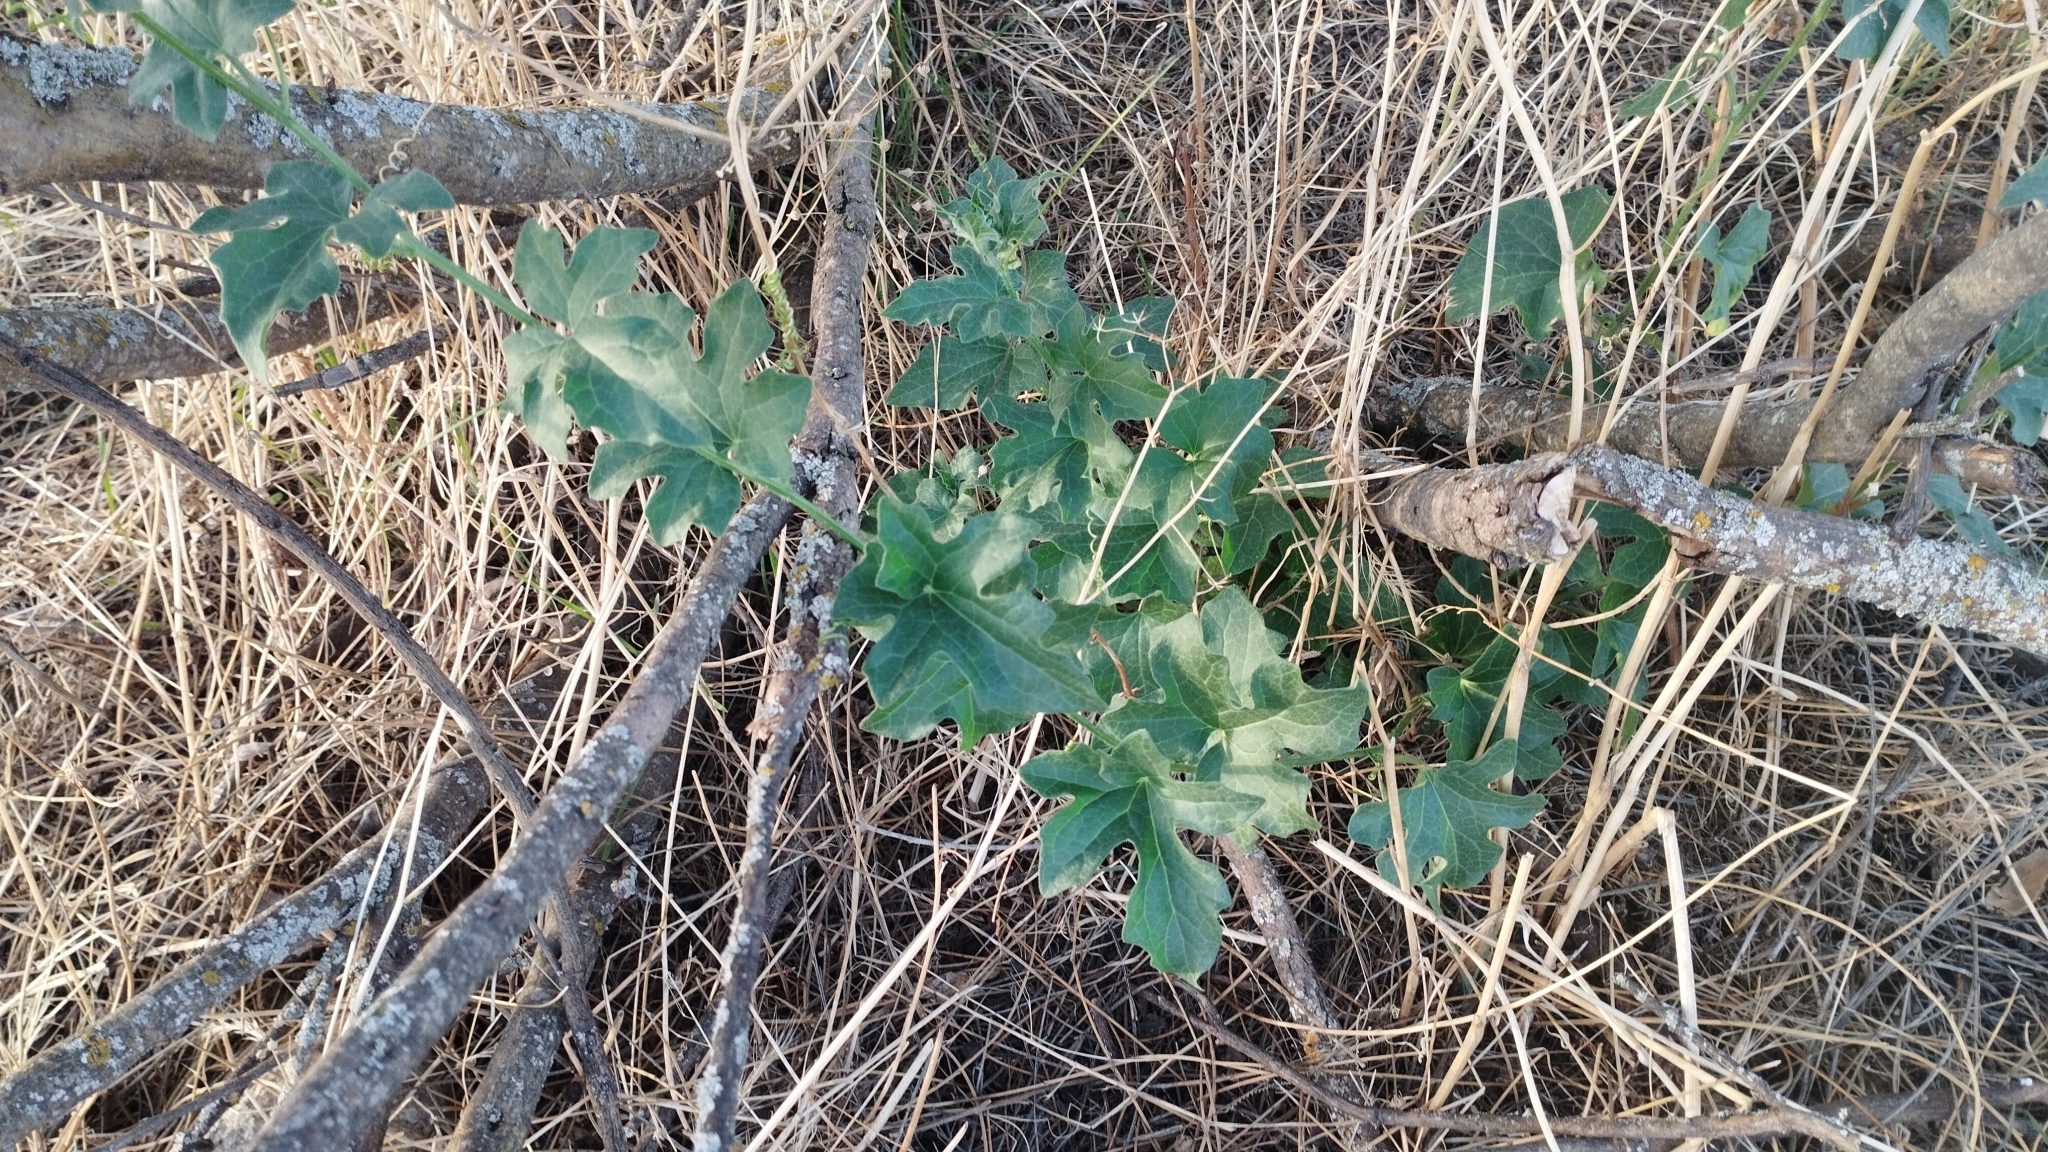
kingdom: Plantae
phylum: Tracheophyta
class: Magnoliopsida
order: Cucurbitales
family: Cucurbitaceae
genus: Bryonia
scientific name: Bryonia cretica
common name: Cretan bryony
